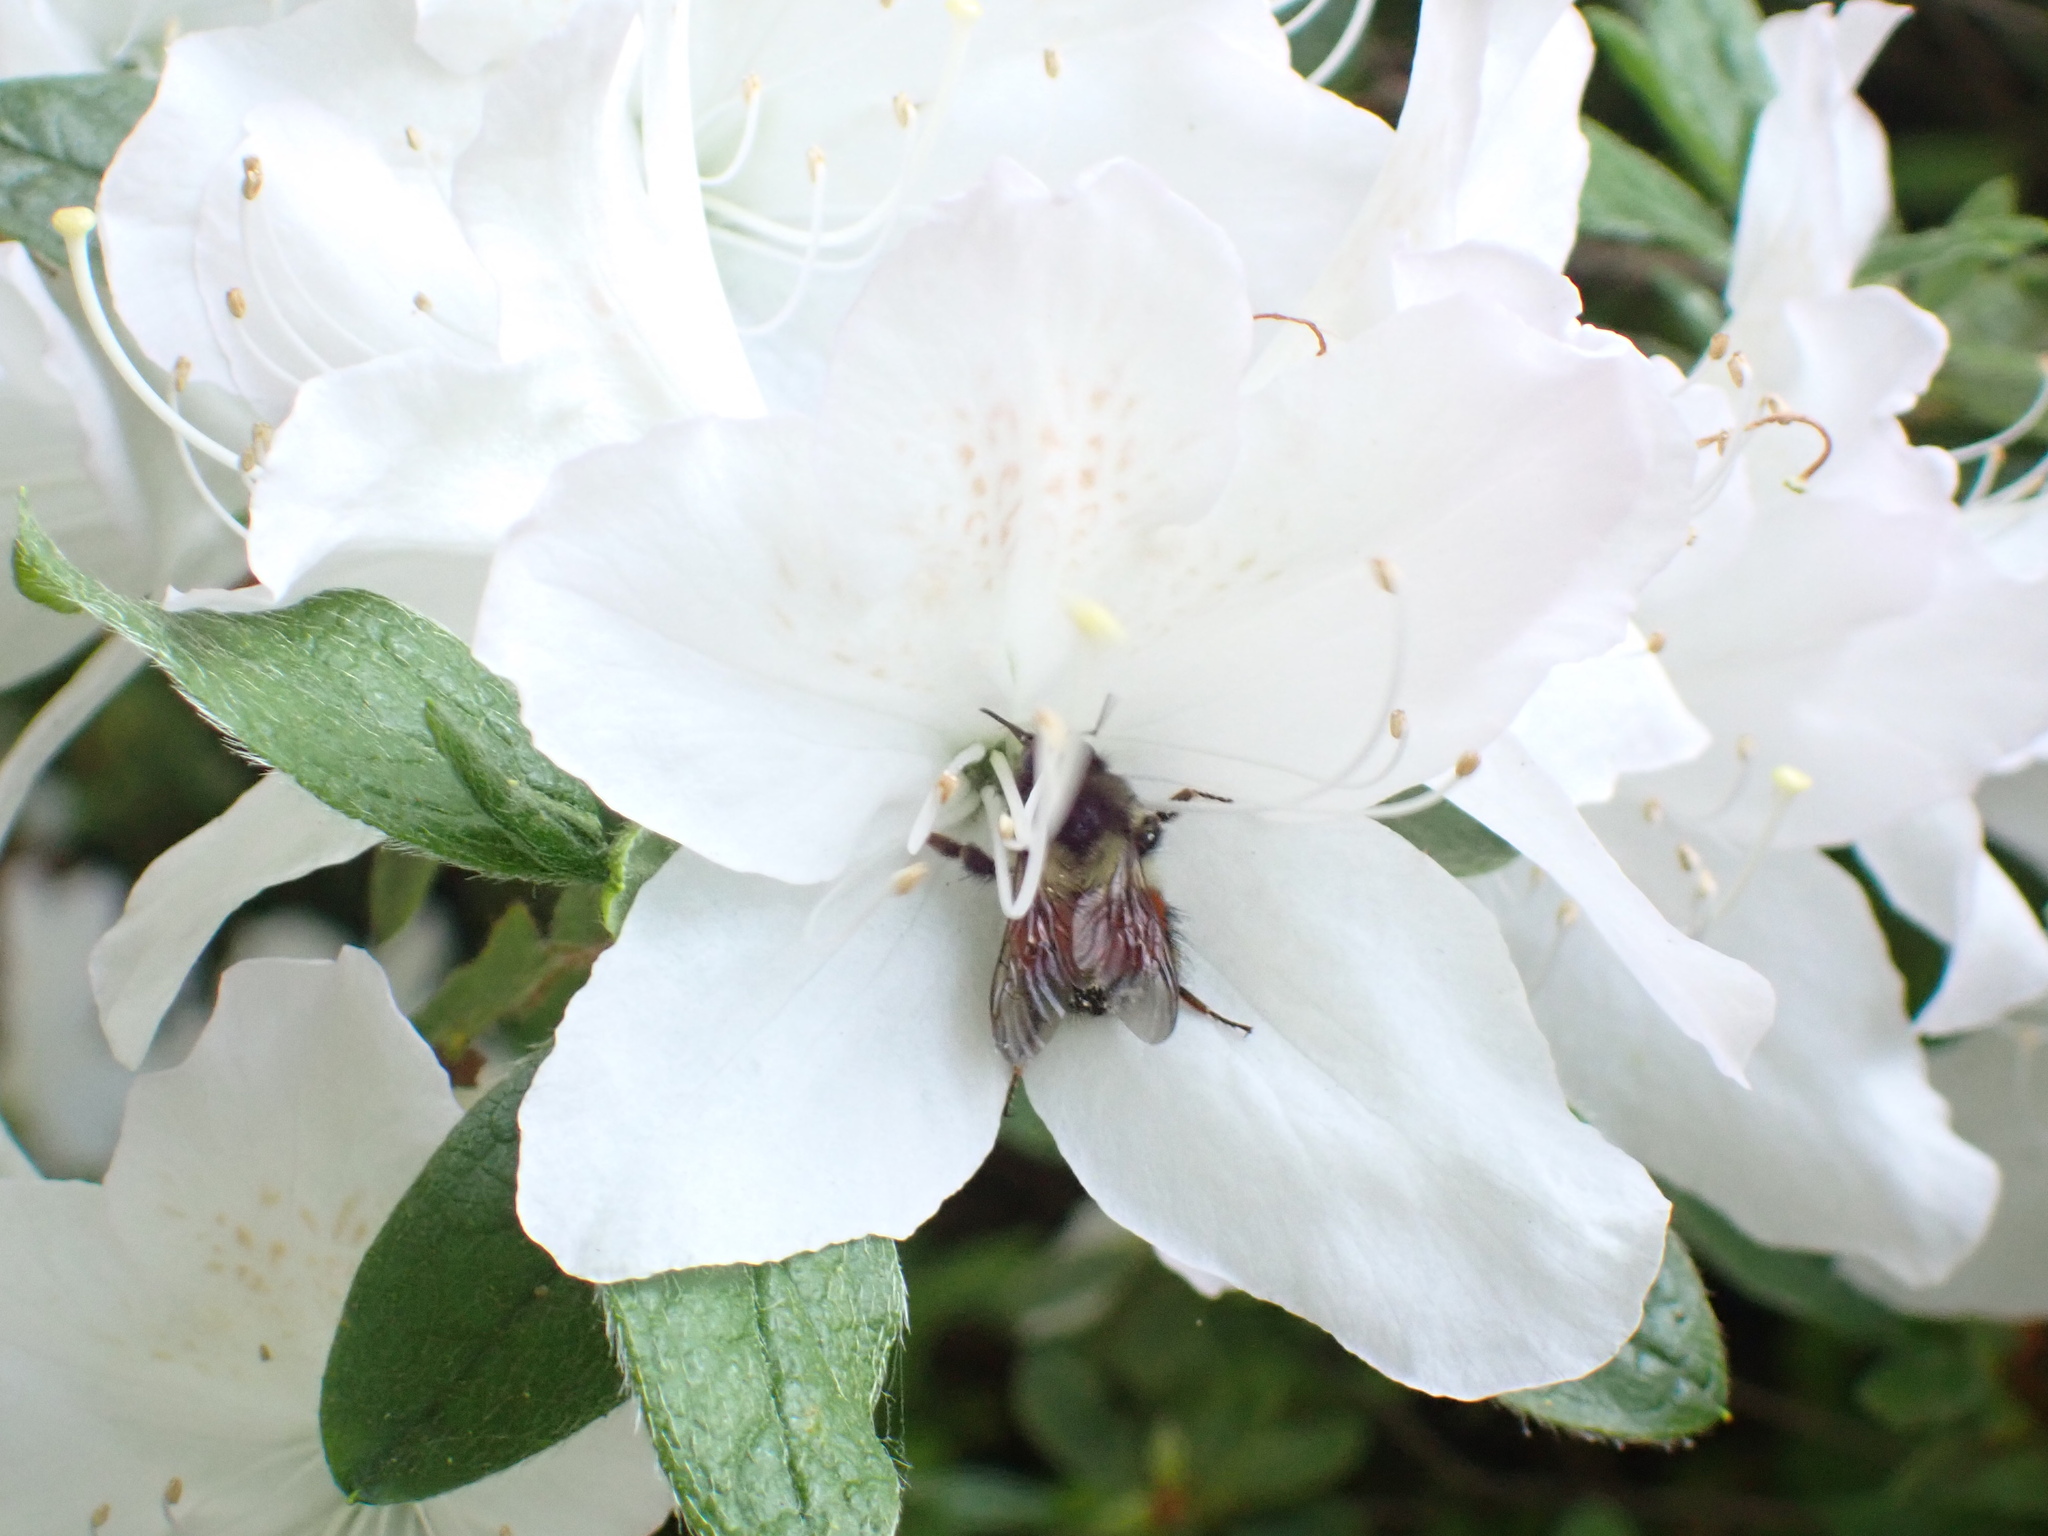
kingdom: Animalia
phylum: Arthropoda
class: Insecta
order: Hymenoptera
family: Apidae
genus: Bombus
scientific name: Bombus melanopygus
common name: Black tail bumble bee
